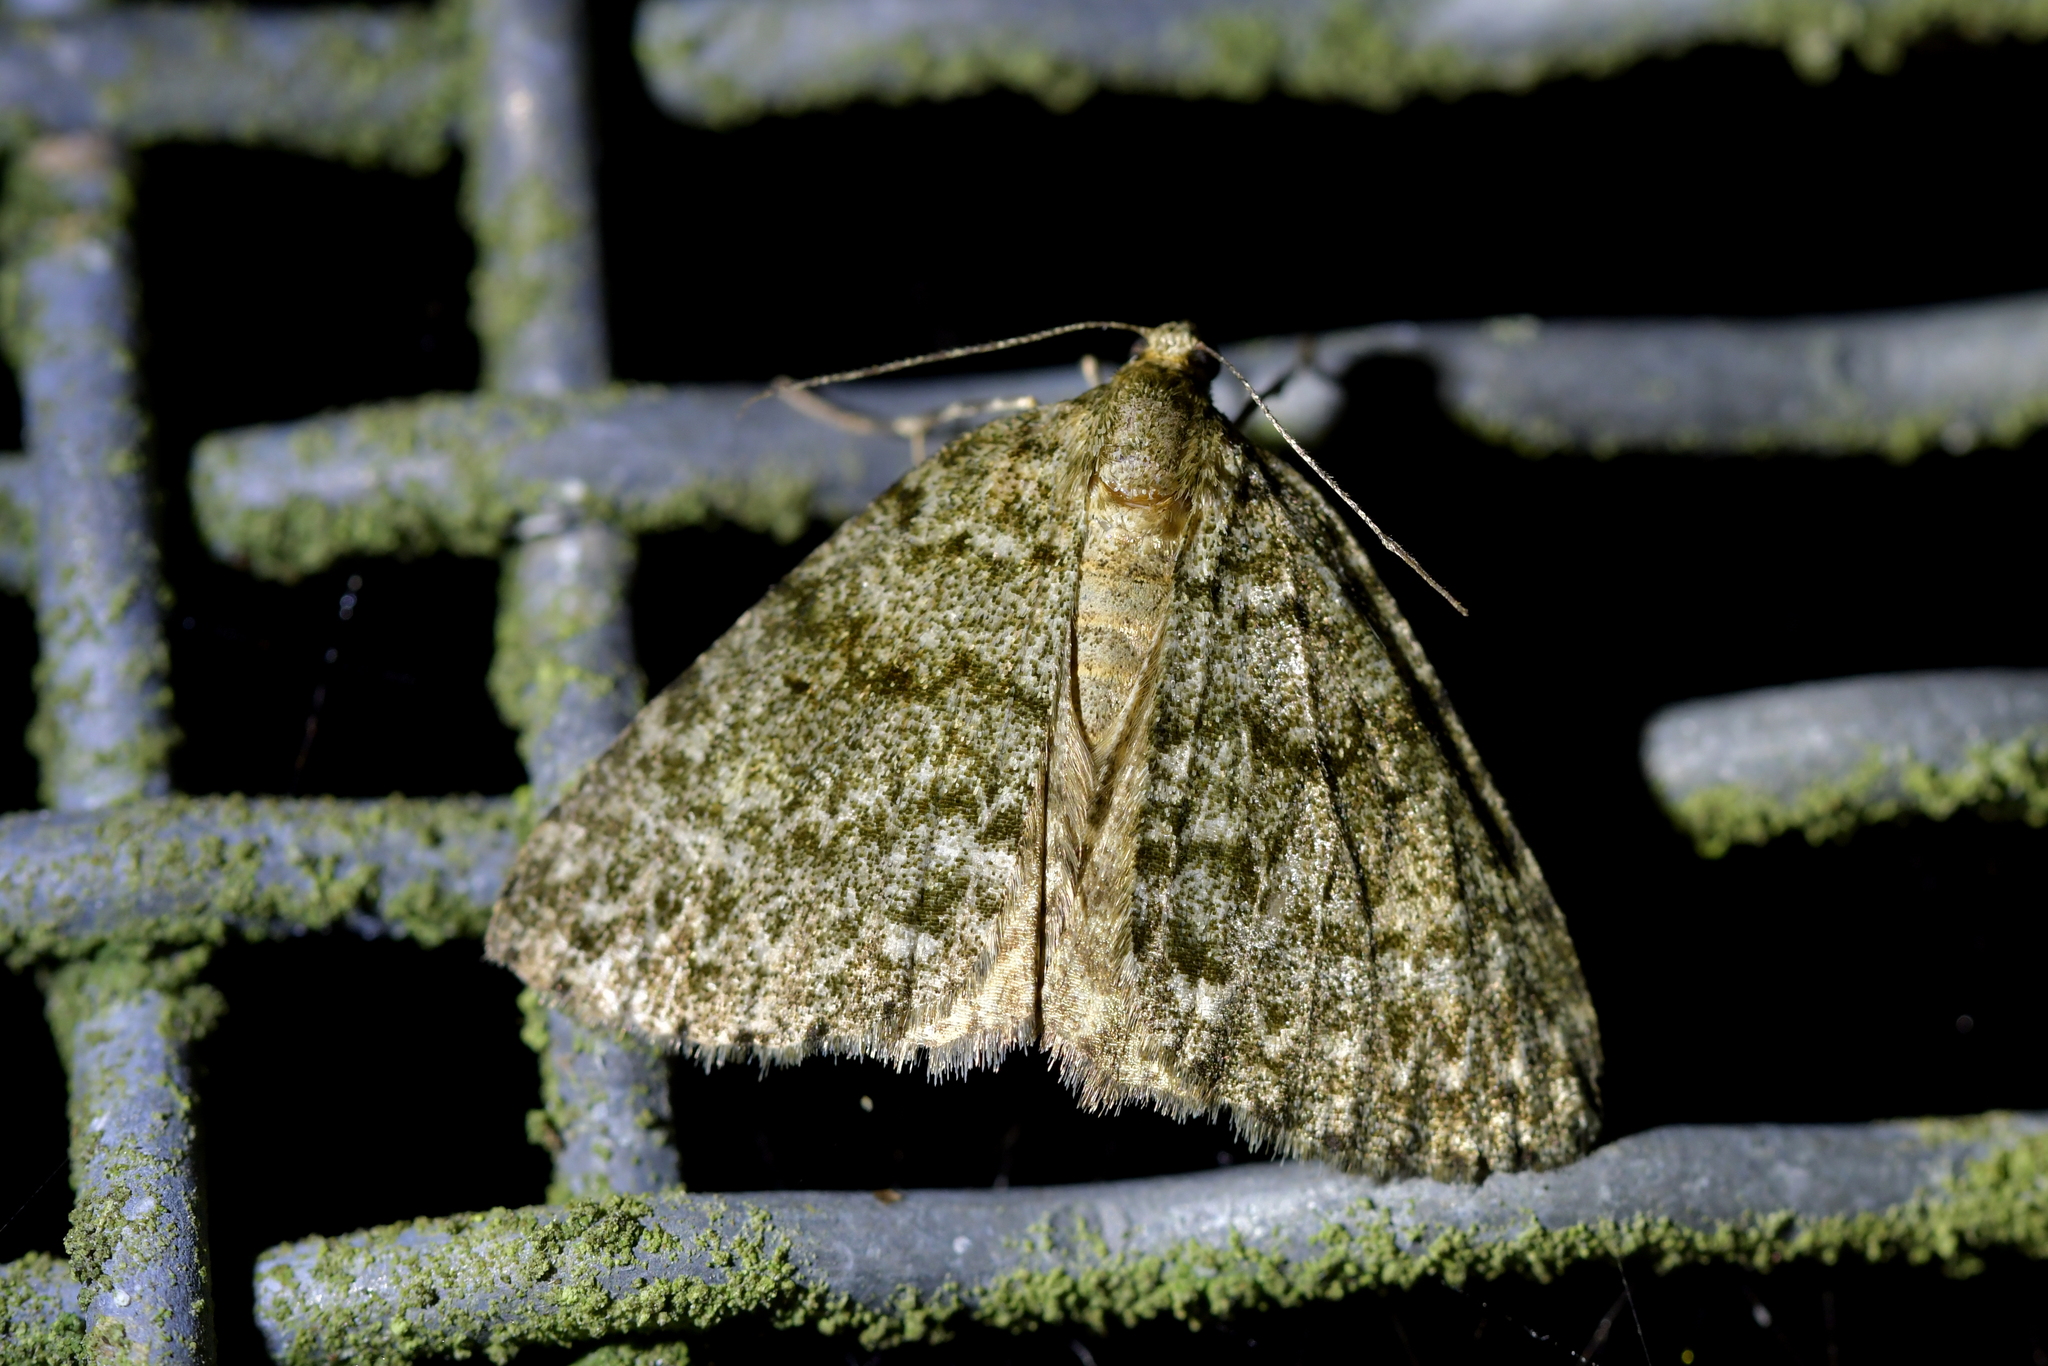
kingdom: Animalia
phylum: Arthropoda
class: Insecta
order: Lepidoptera
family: Geometridae
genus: Pseudocoremia
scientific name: Pseudocoremia indistincta
